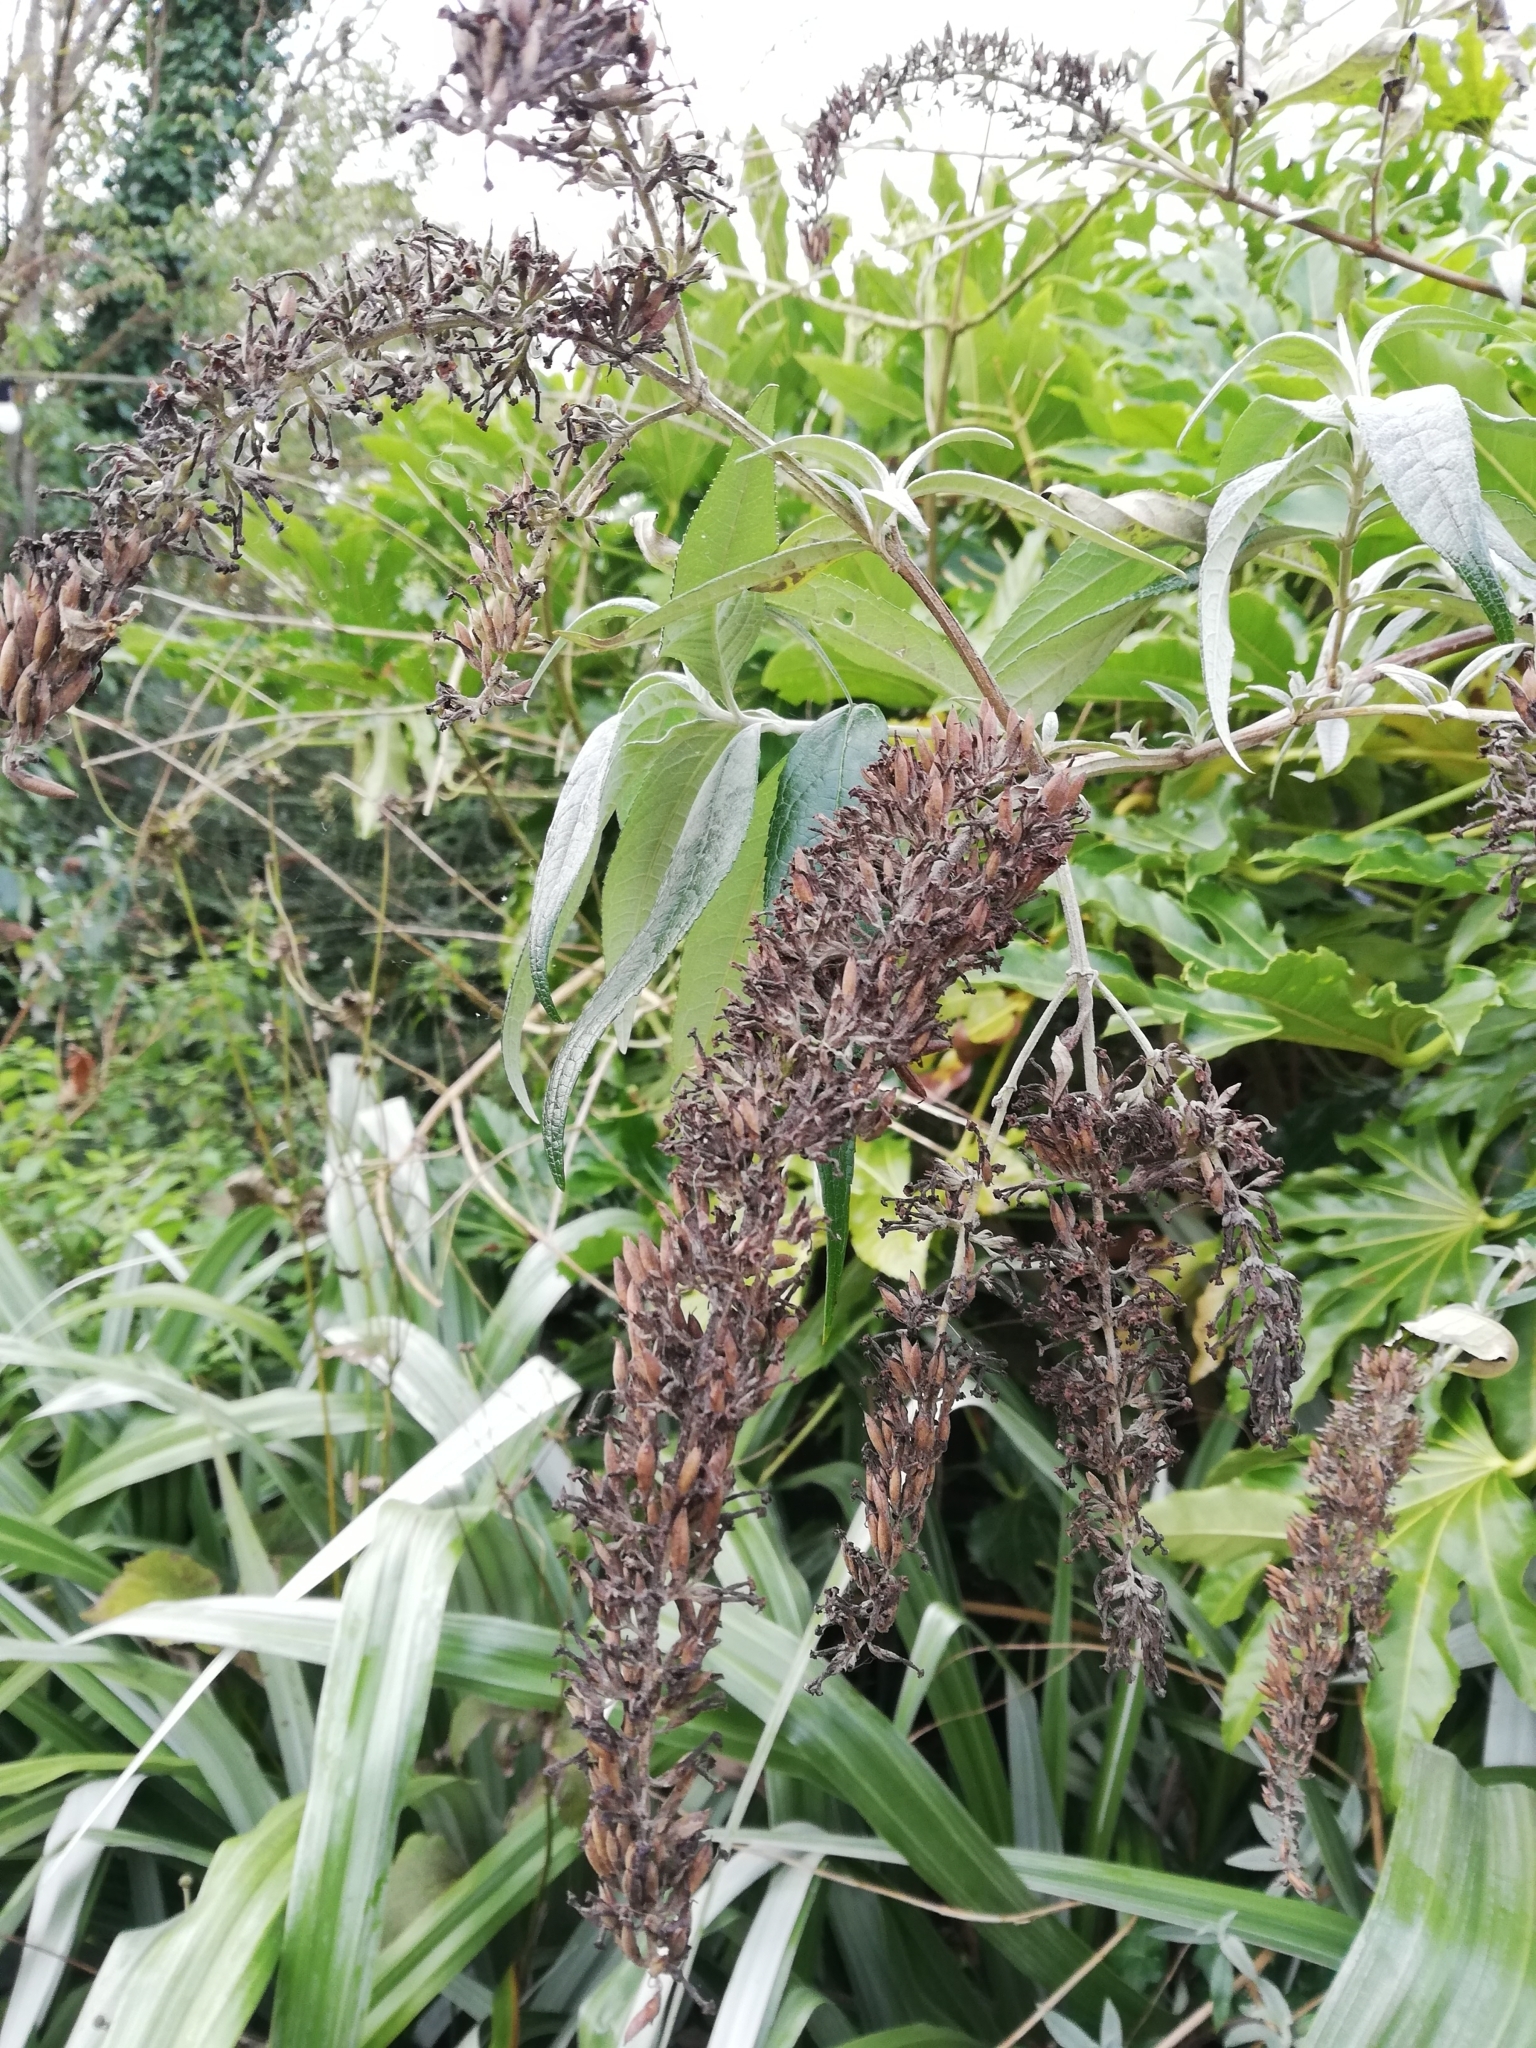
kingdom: Plantae
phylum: Tracheophyta
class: Magnoliopsida
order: Lamiales
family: Scrophulariaceae
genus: Buddleja
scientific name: Buddleja davidii
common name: Butterfly-bush
